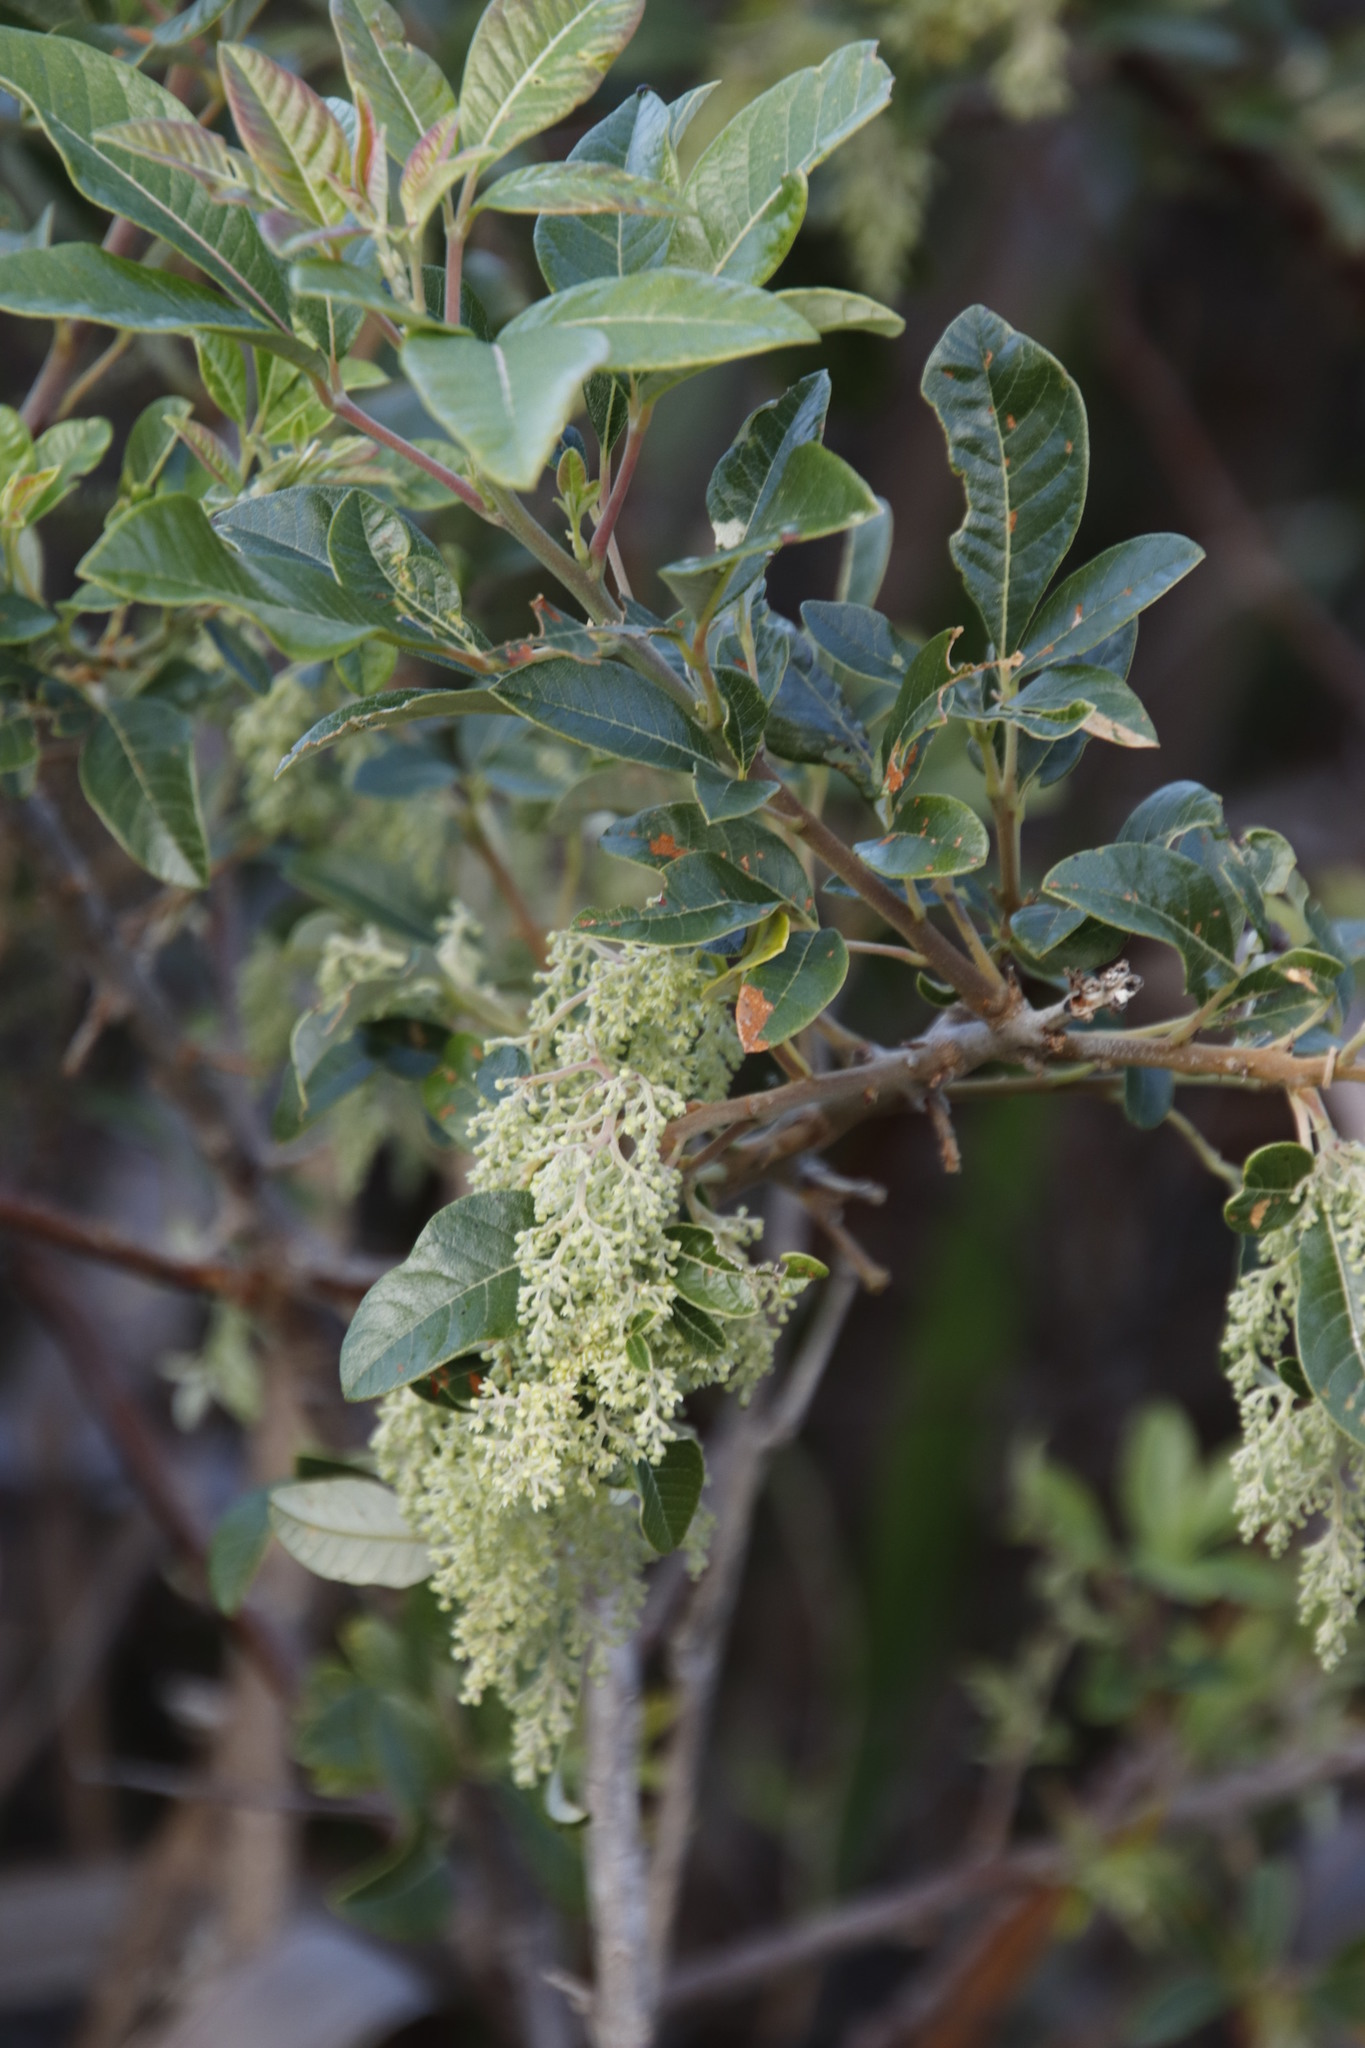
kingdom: Plantae
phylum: Tracheophyta
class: Magnoliopsida
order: Sapindales
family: Anacardiaceae
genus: Searsia
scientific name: Searsia tomentosa
